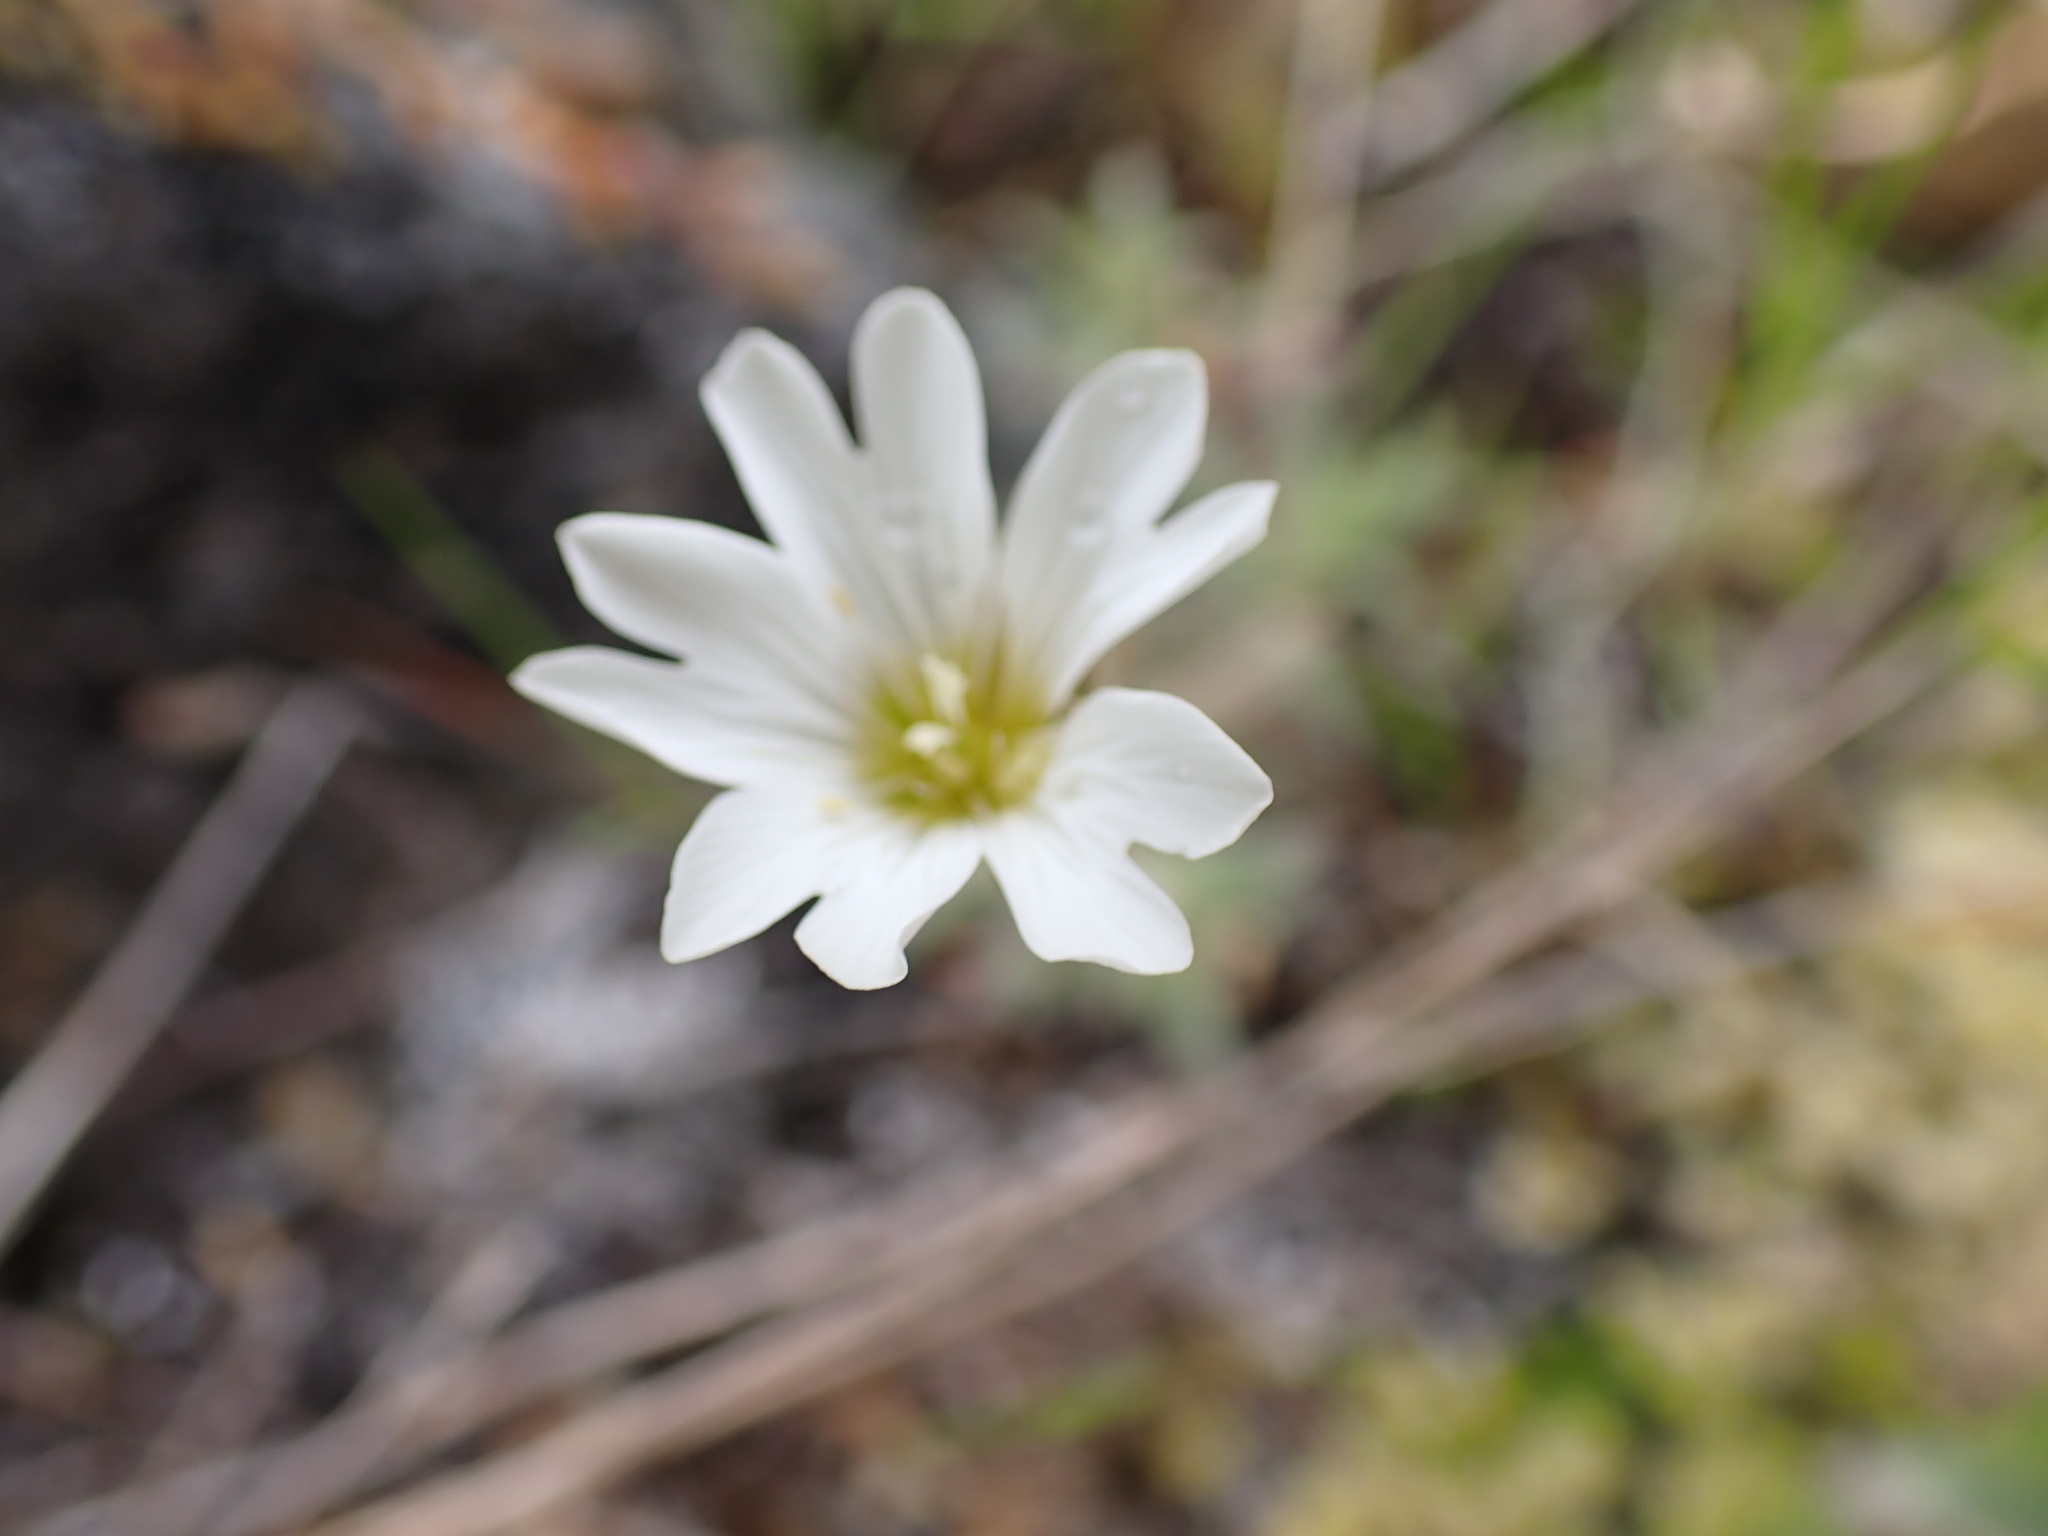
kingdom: Plantae
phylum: Tracheophyta
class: Magnoliopsida
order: Caryophyllales
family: Caryophyllaceae
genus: Cerastium
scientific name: Cerastium arvense
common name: Field mouse-ear
